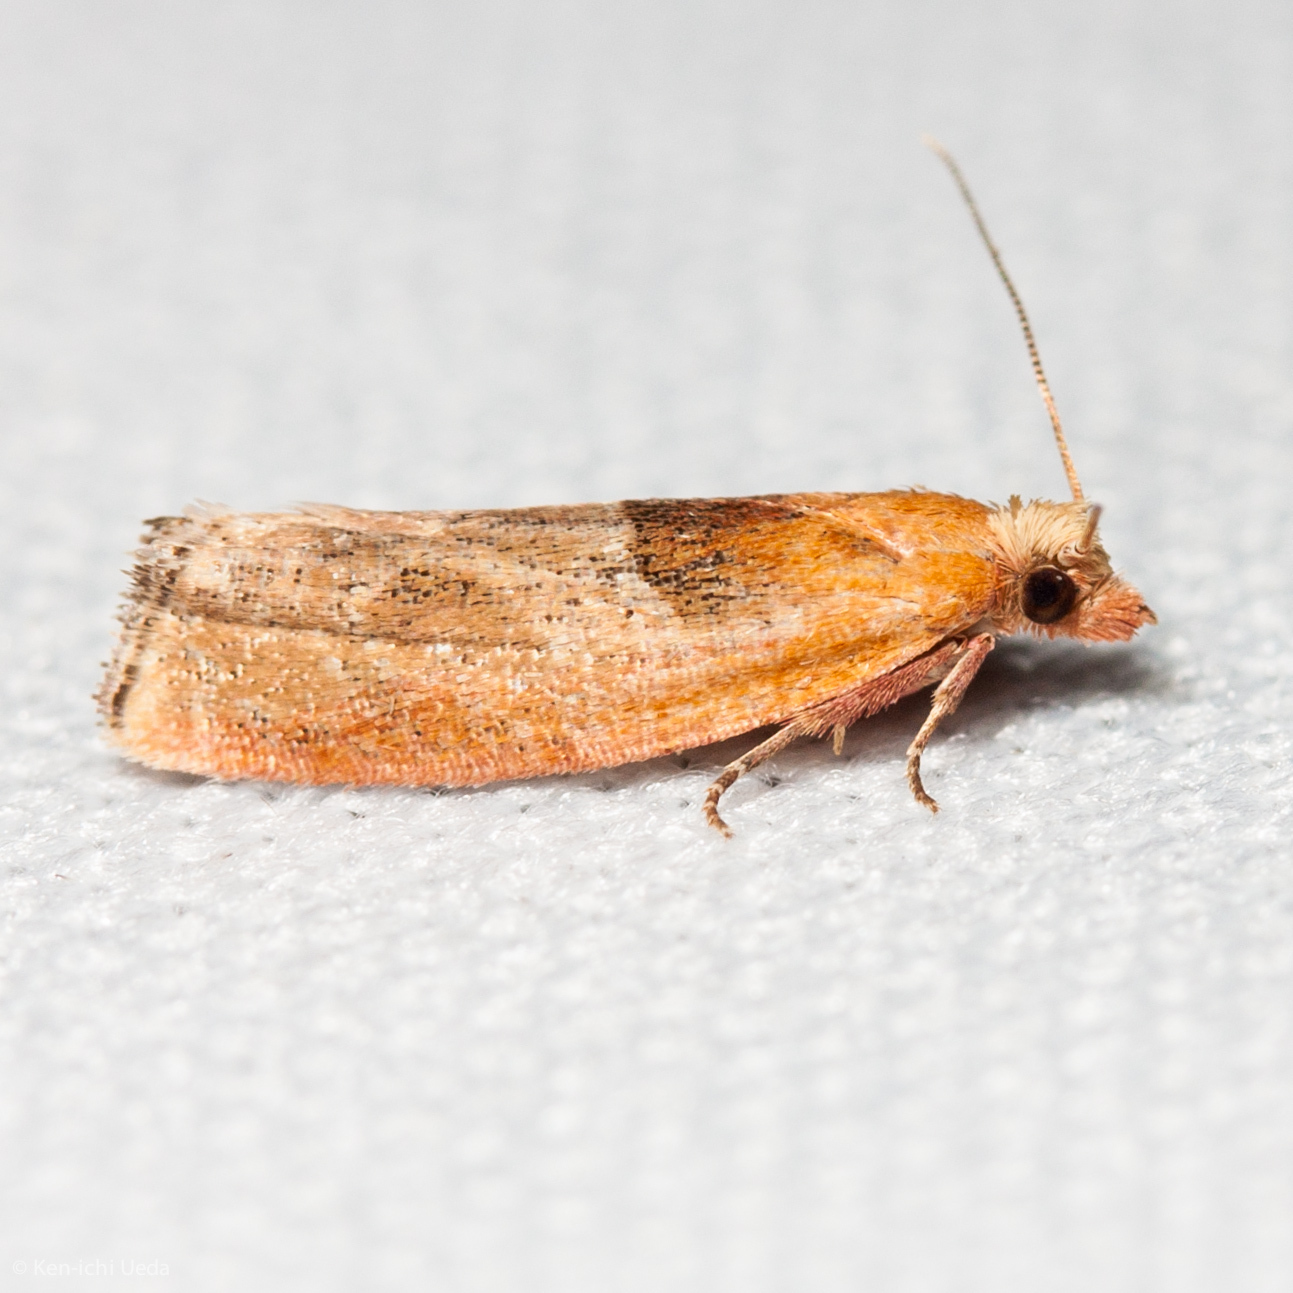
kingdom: Animalia
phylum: Arthropoda
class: Insecta
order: Lepidoptera
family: Tortricidae
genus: Epinotia
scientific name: Epinotia johnsonana
